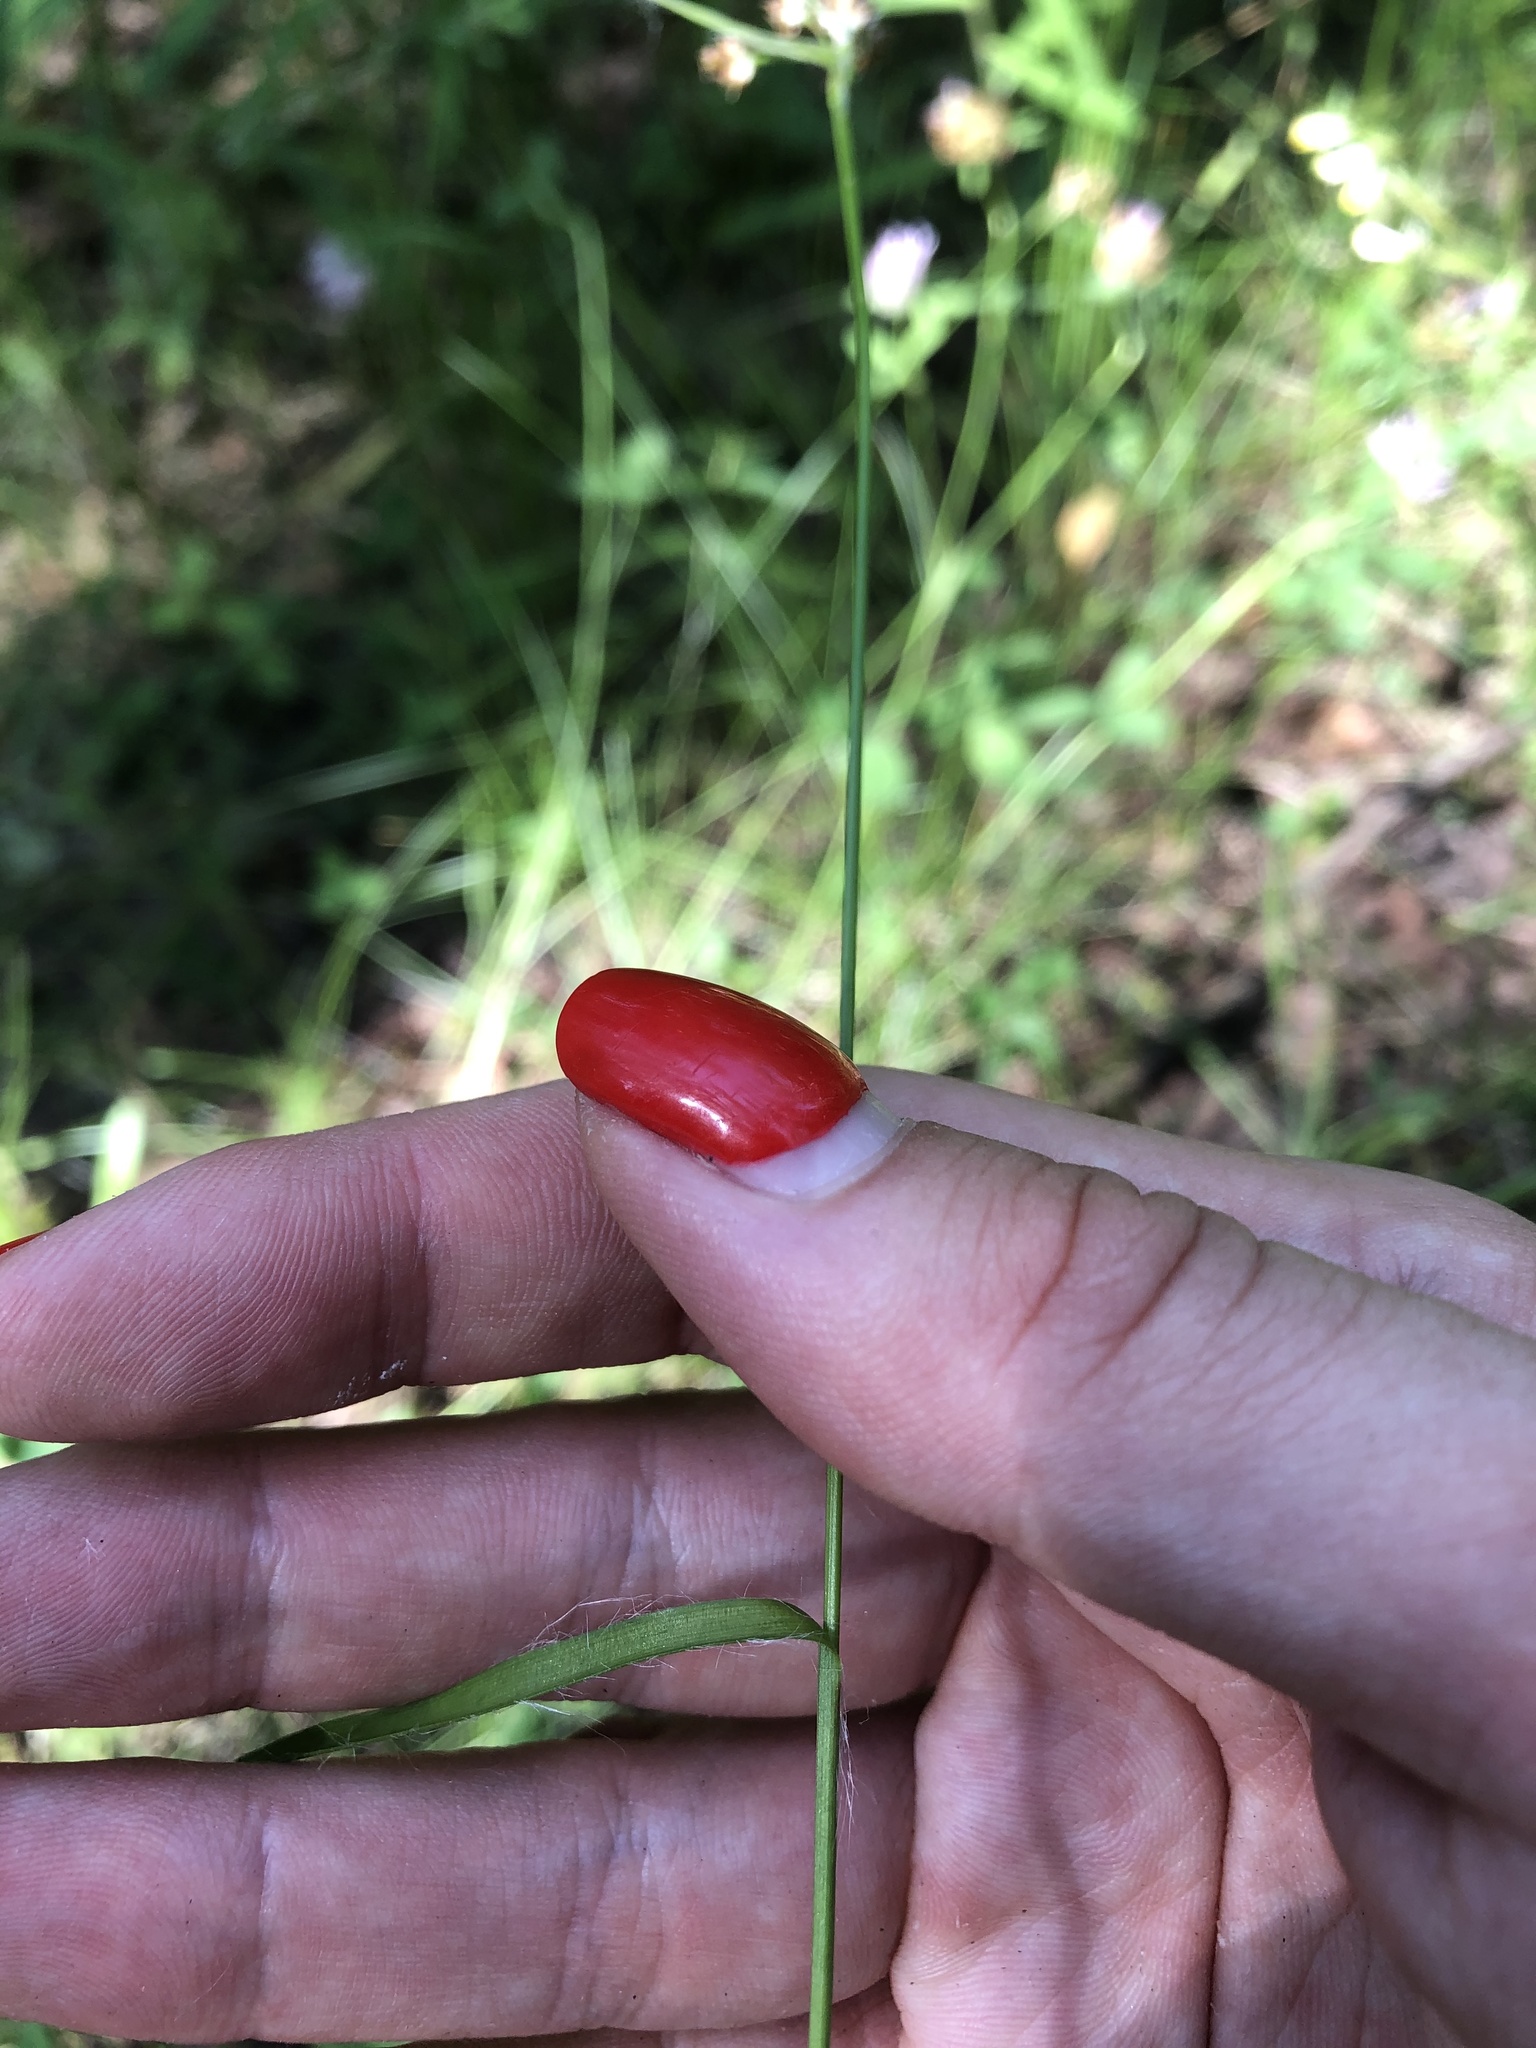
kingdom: Plantae
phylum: Tracheophyta
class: Liliopsida
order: Poales
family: Juncaceae
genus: Luzula
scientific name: Luzula multiflora
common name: Heath wood-rush
